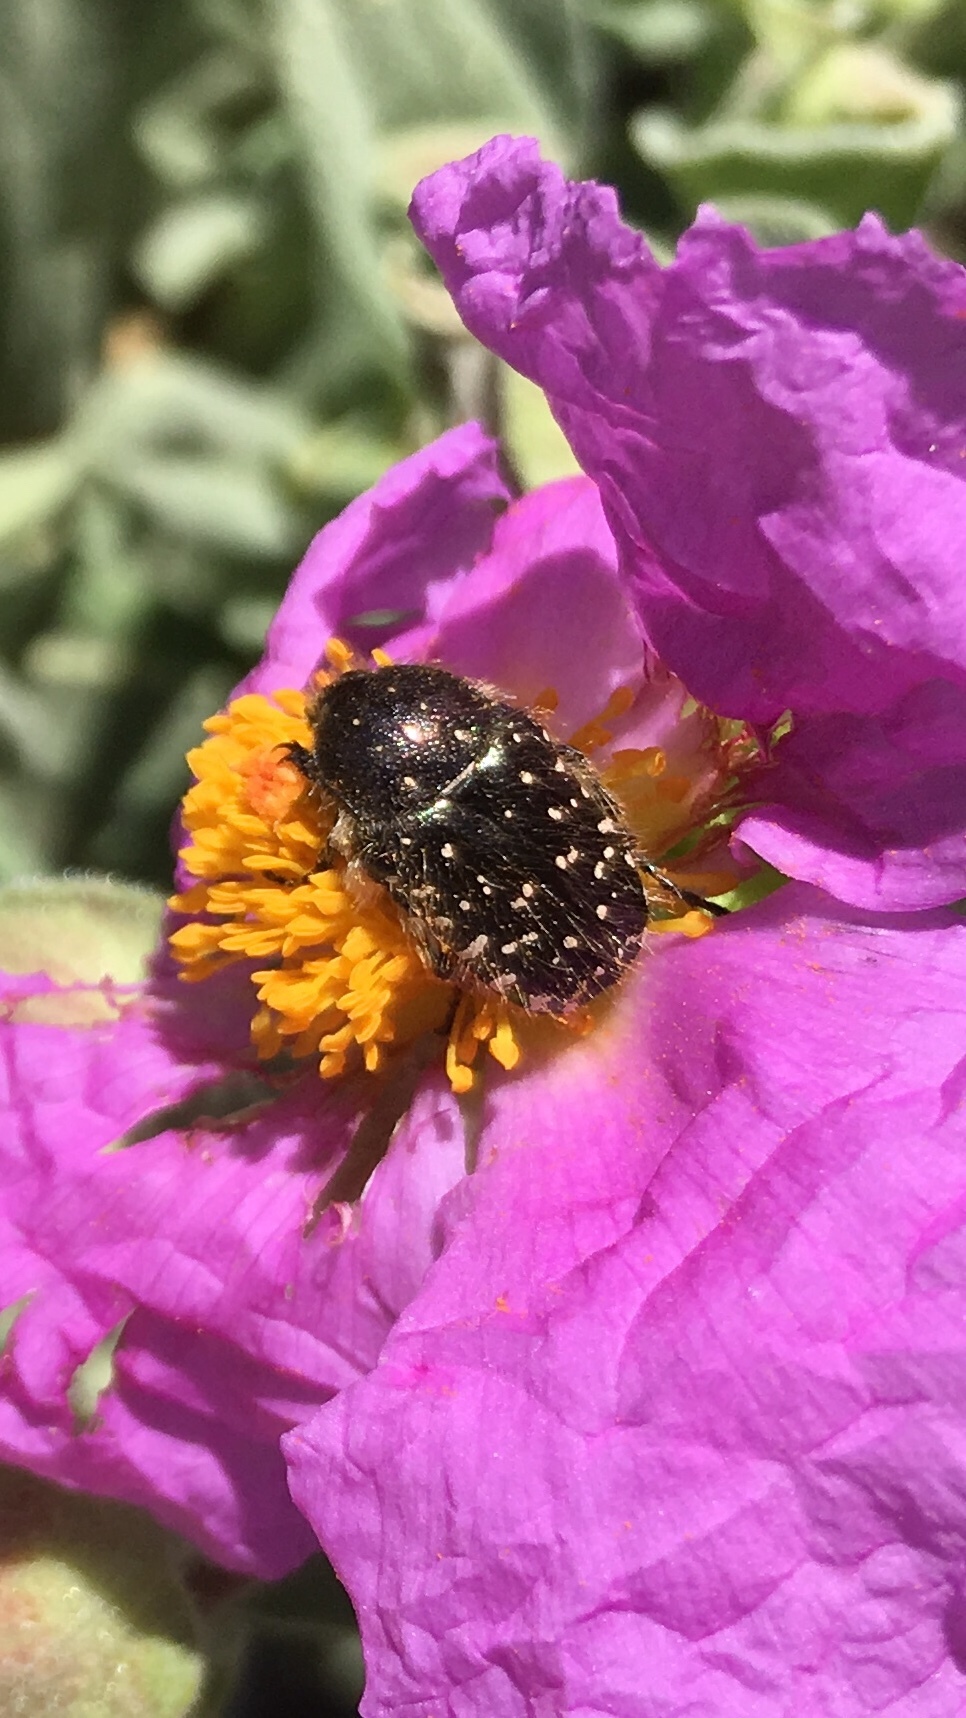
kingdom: Animalia
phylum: Arthropoda
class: Insecta
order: Coleoptera
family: Scarabaeidae
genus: Oxythyrea
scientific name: Oxythyrea funesta
